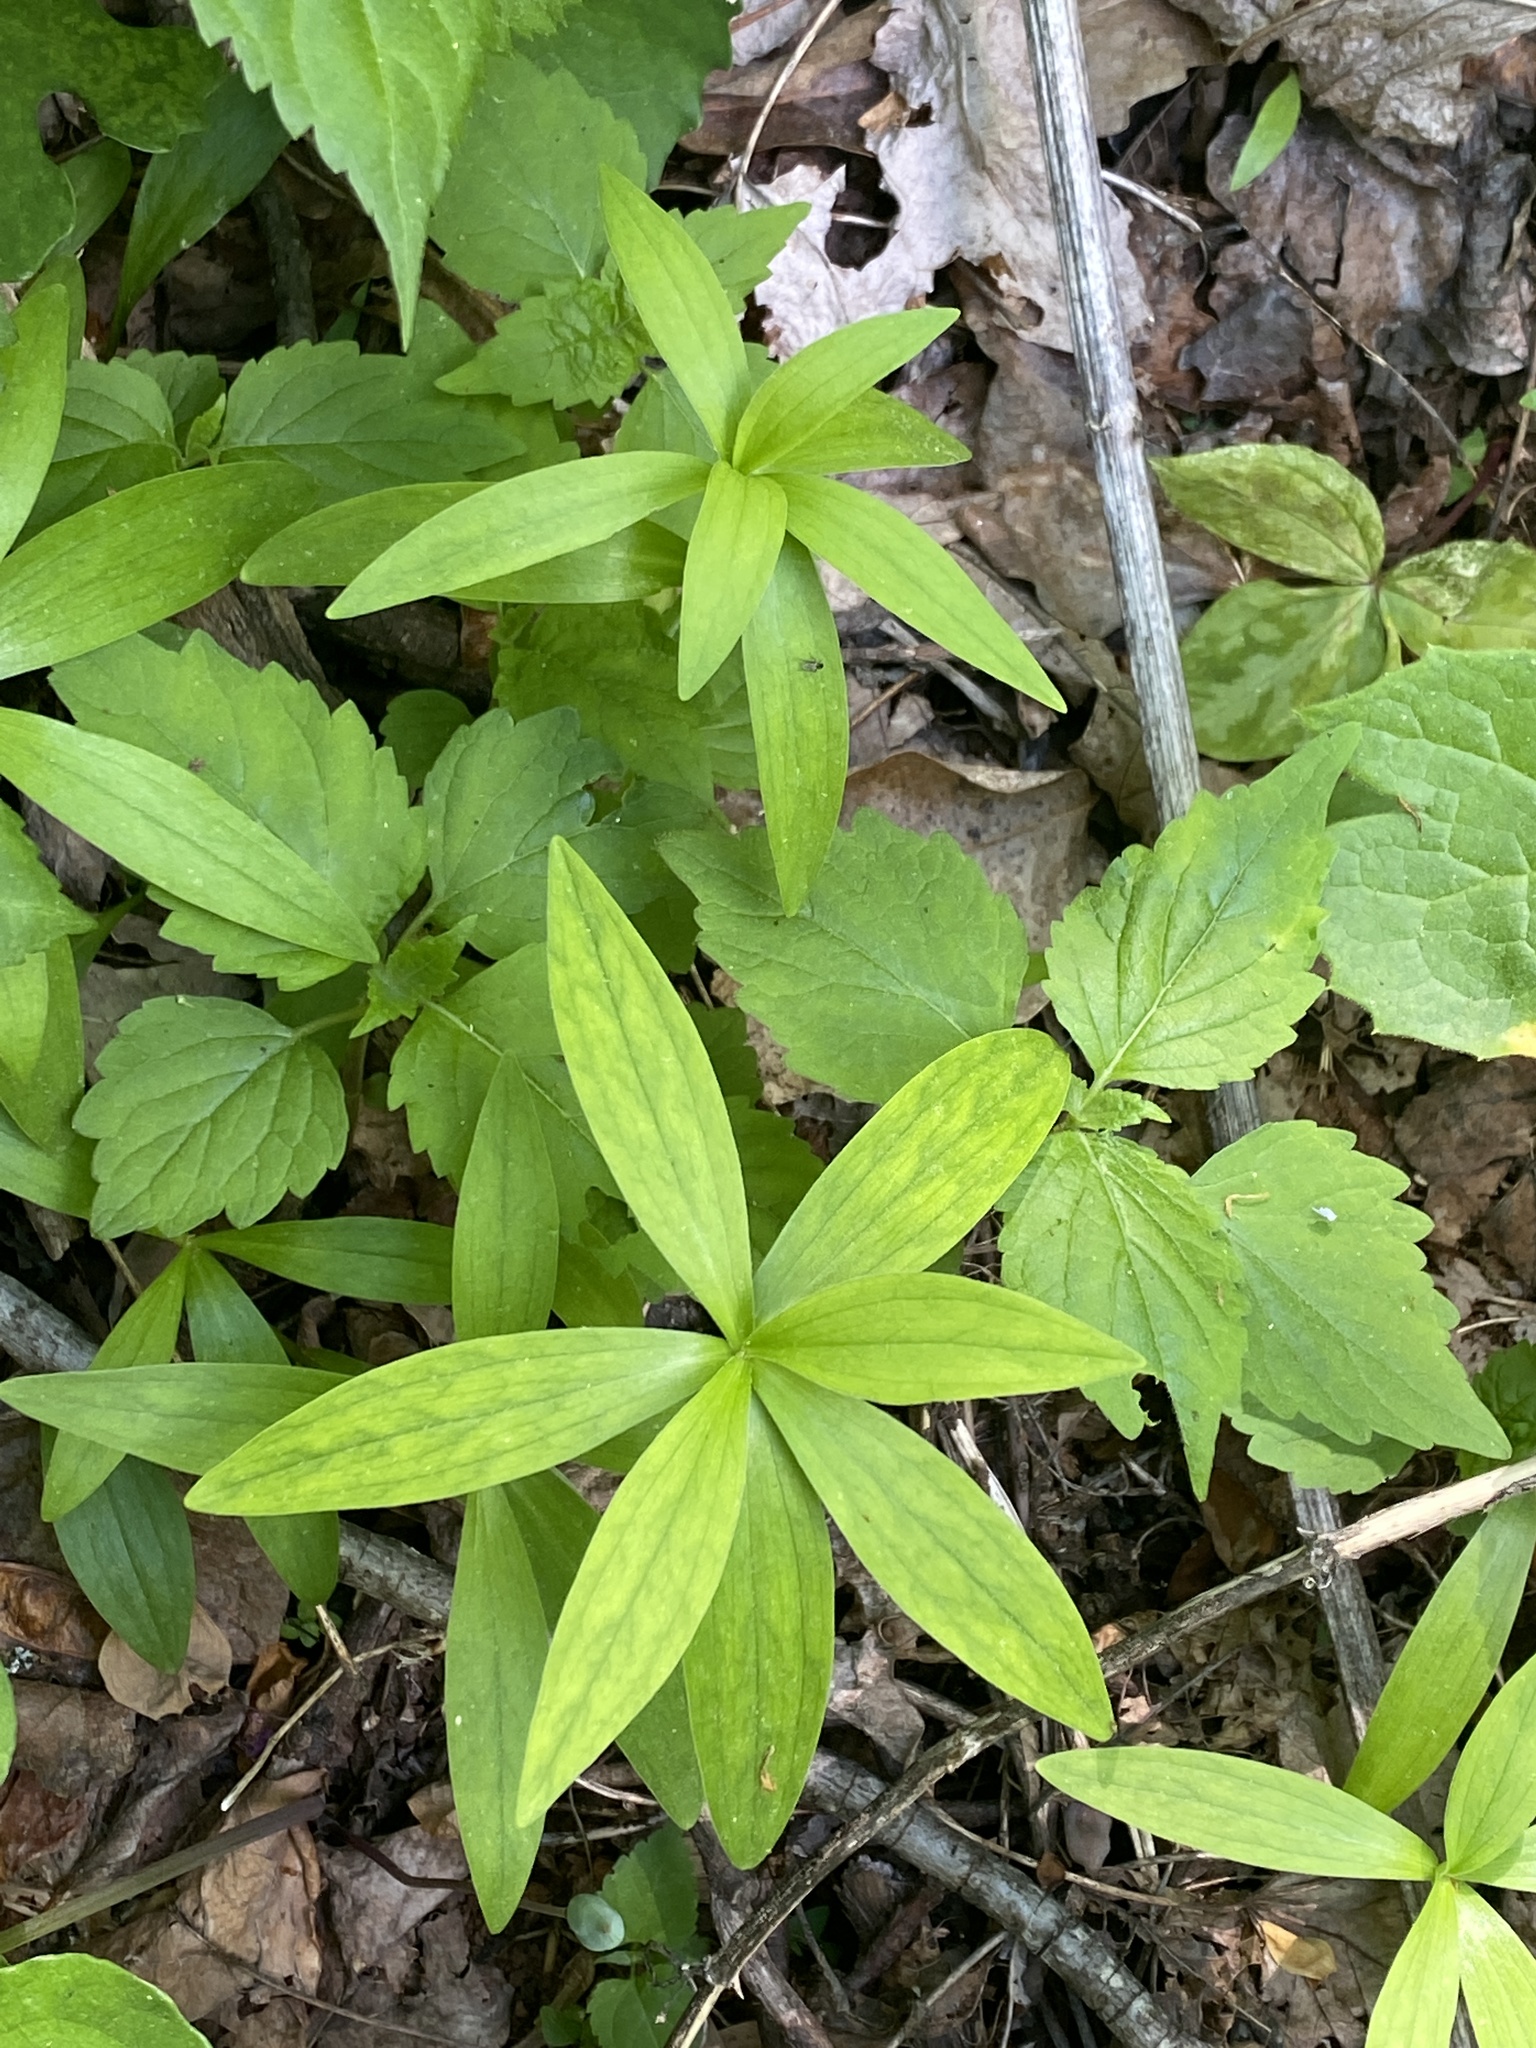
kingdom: Plantae
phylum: Tracheophyta
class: Liliopsida
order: Liliales
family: Liliaceae
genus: Lilium
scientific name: Lilium superbum
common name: American turk's-cap lily
